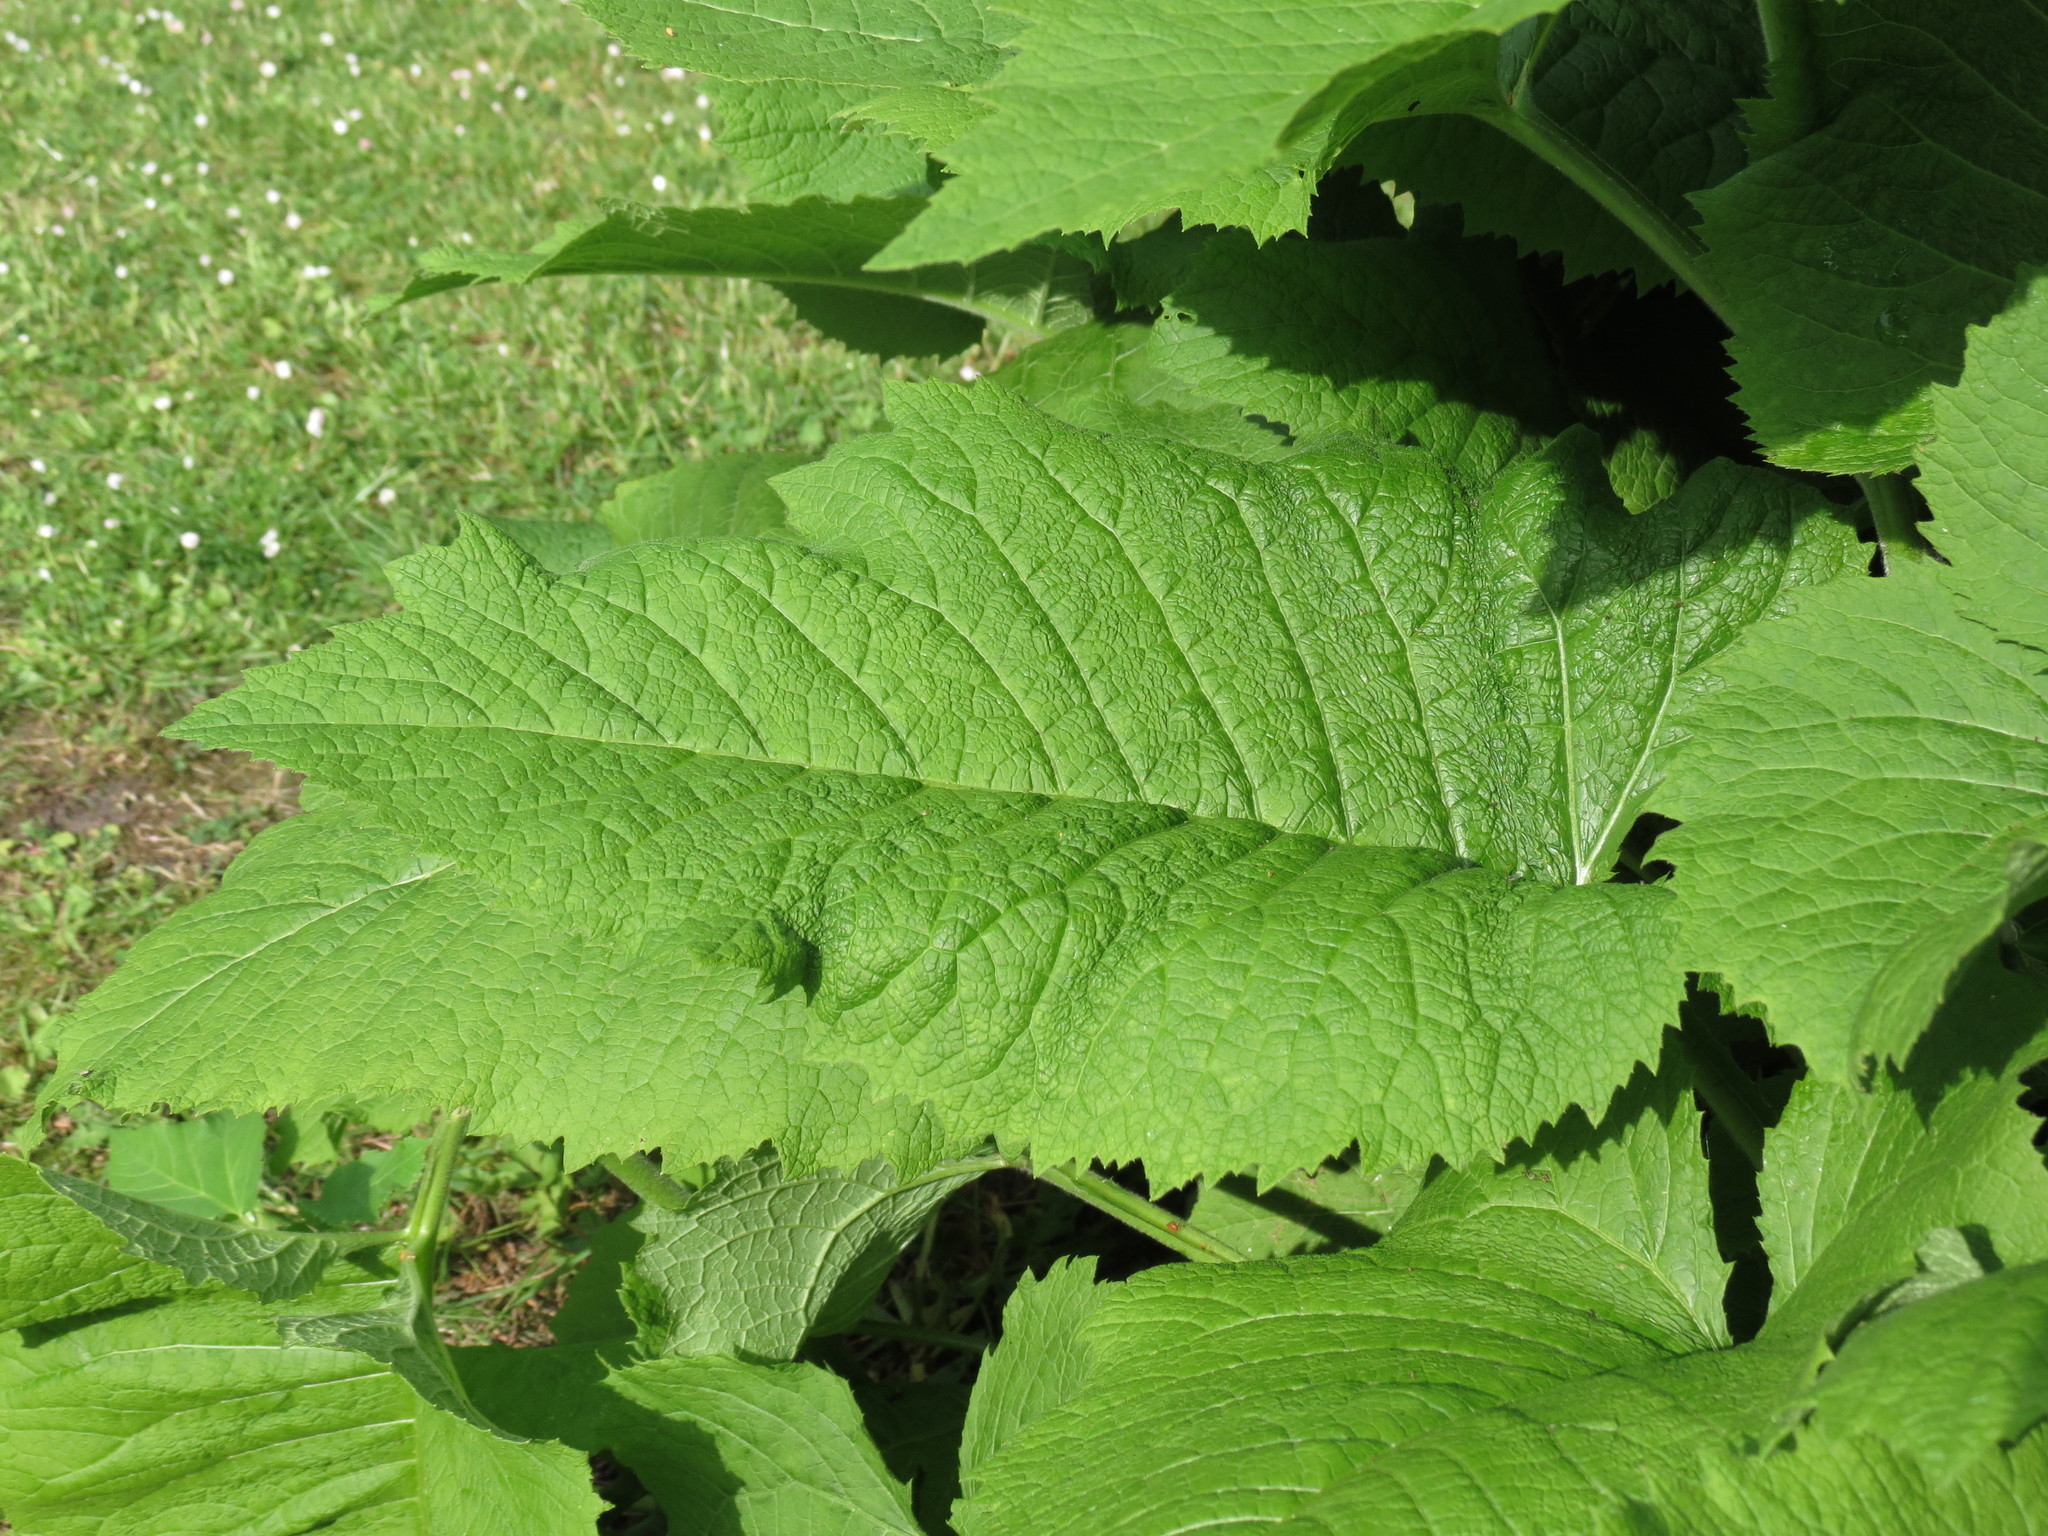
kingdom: Plantae
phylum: Tracheophyta
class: Magnoliopsida
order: Asterales
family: Asteraceae
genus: Telekia
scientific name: Telekia speciosa
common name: Yellow oxeye
